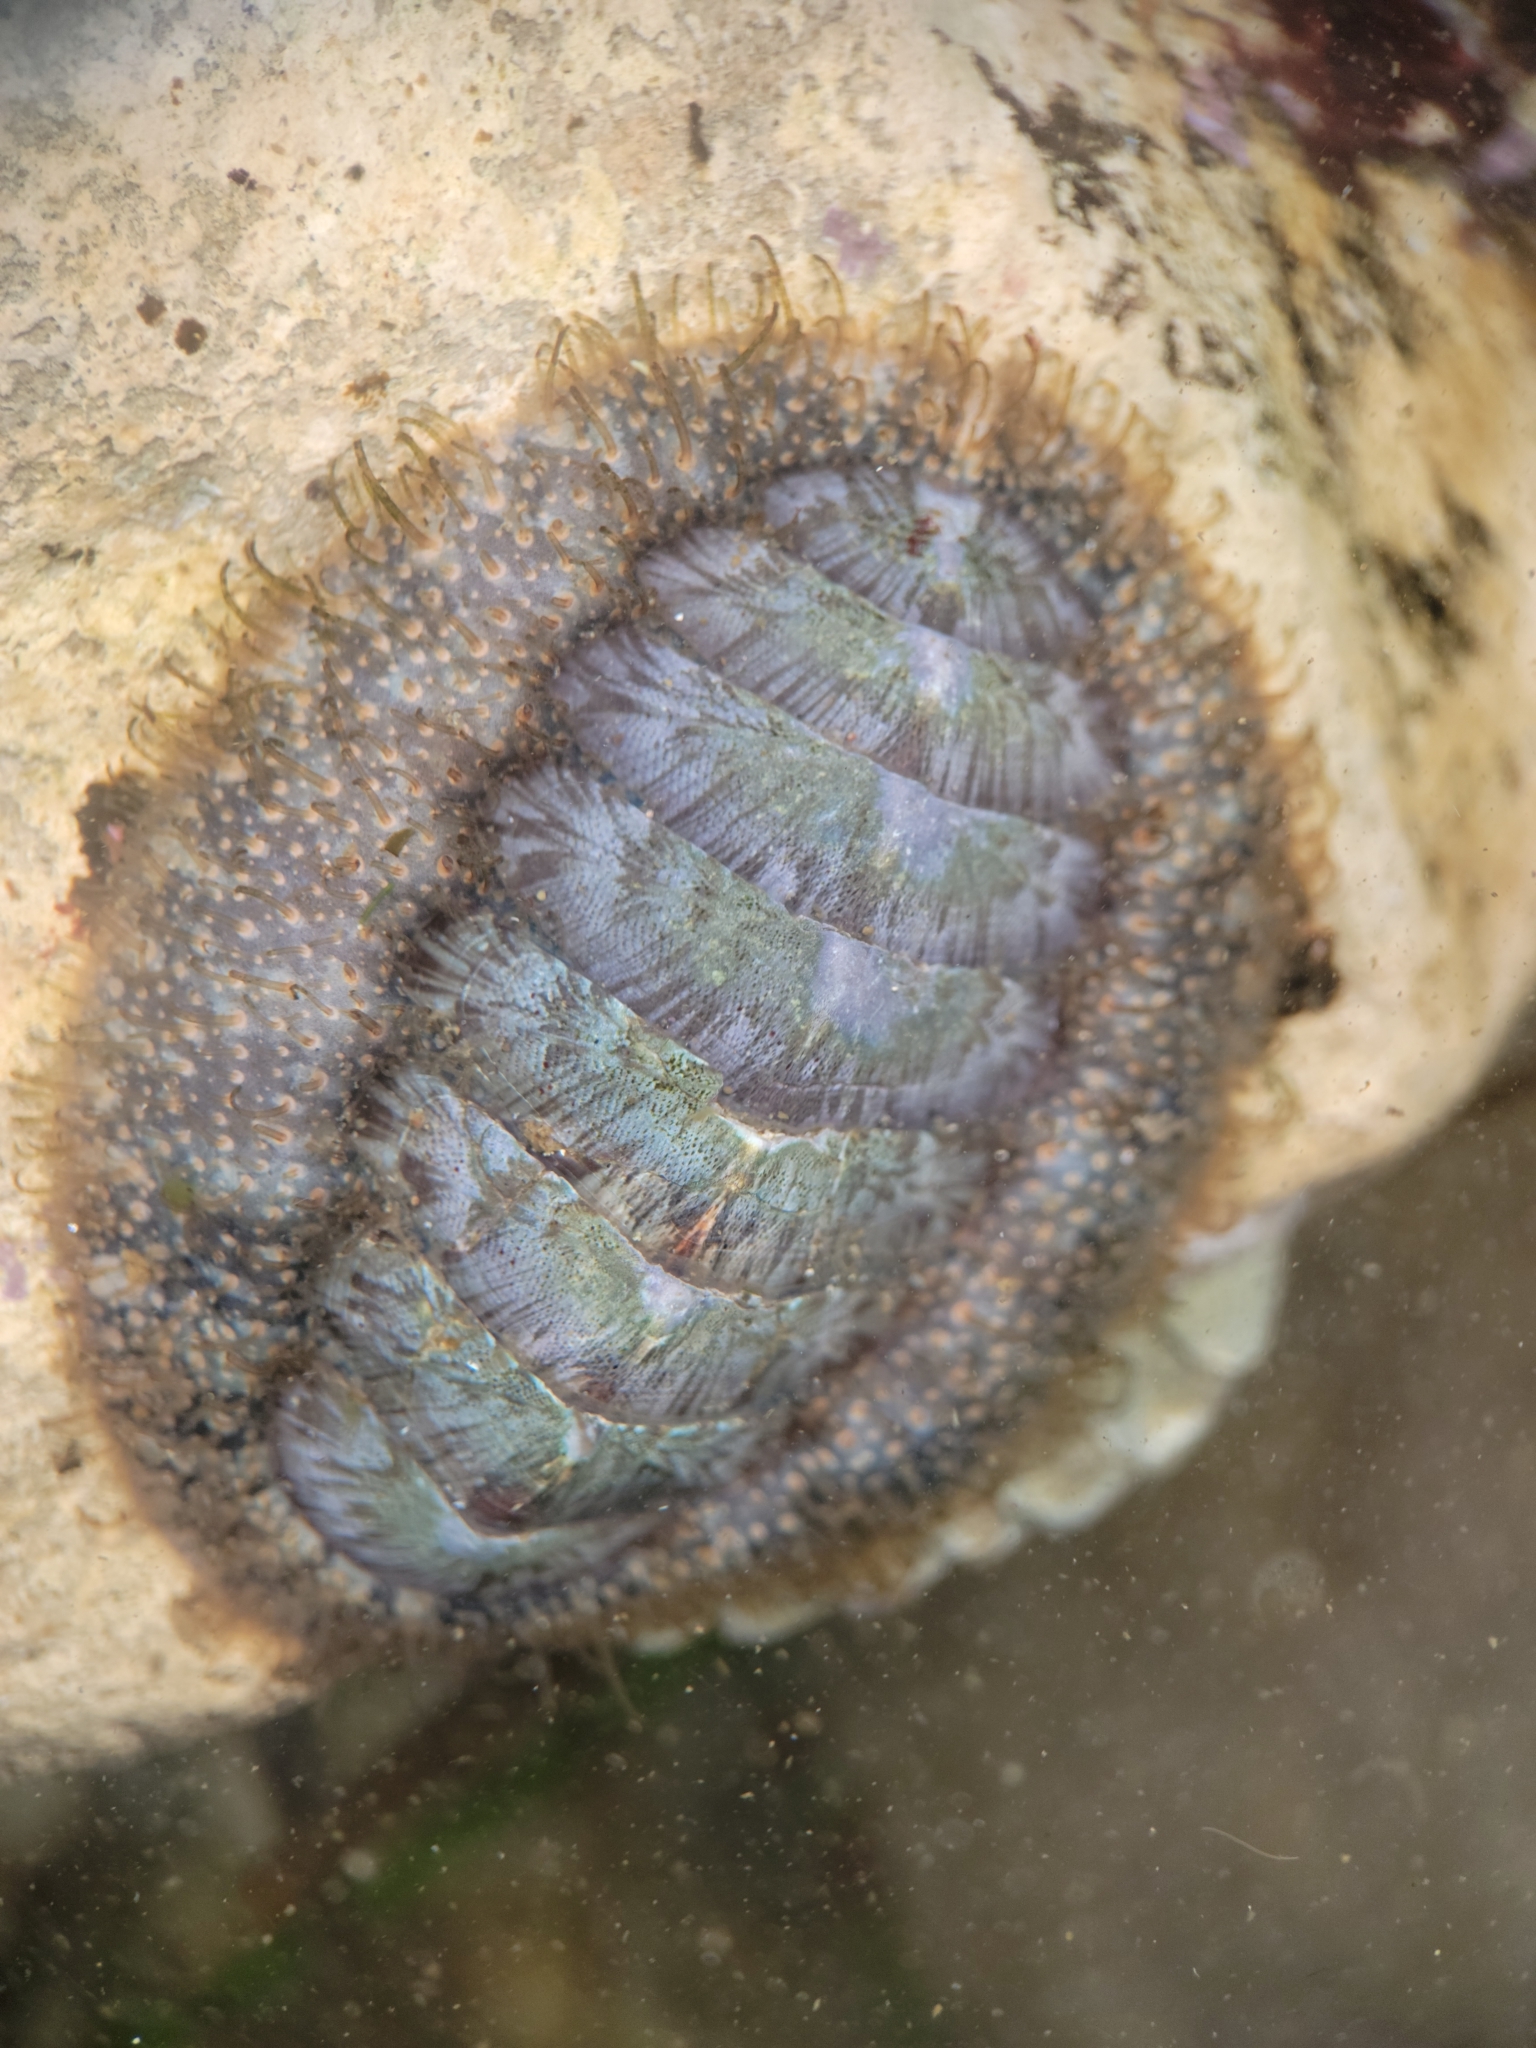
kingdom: Animalia
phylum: Mollusca
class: Polyplacophora
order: Chitonida
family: Mopaliidae
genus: Mopalia
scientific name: Mopalia lignosa
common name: Woody chiton
